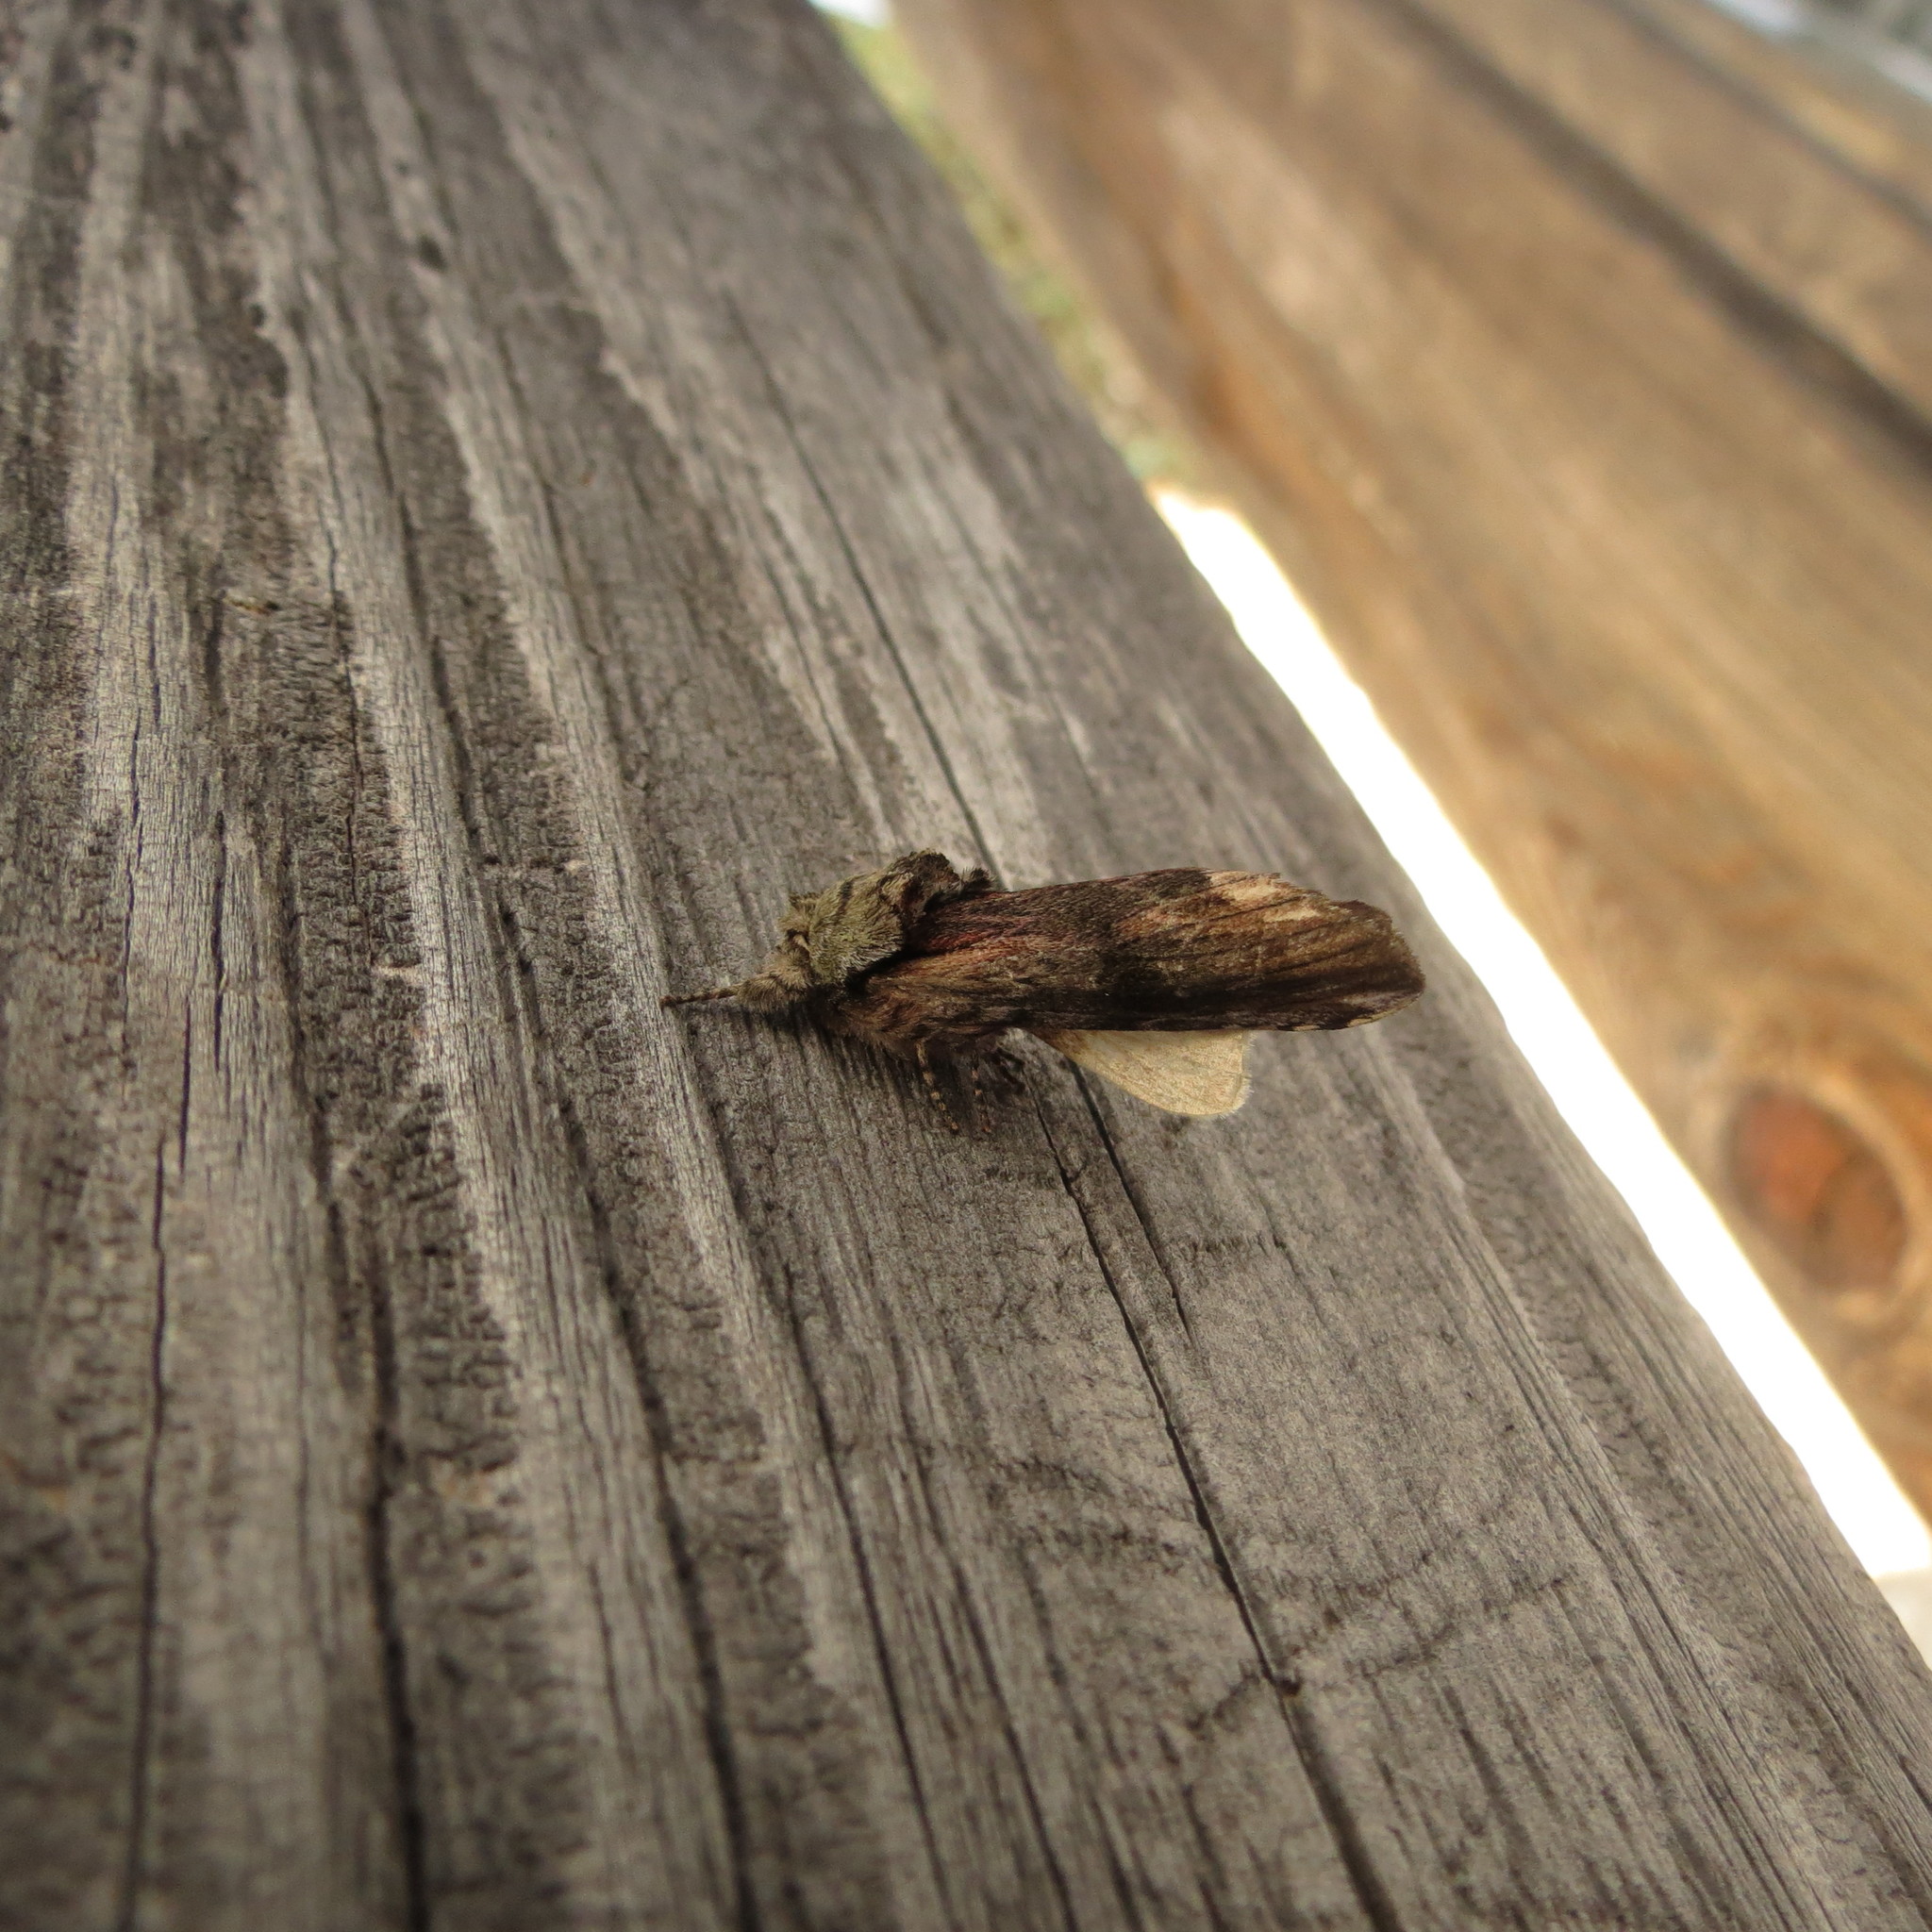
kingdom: Animalia
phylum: Arthropoda
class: Insecta
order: Lepidoptera
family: Notodontidae
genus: Schizura
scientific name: Schizura
